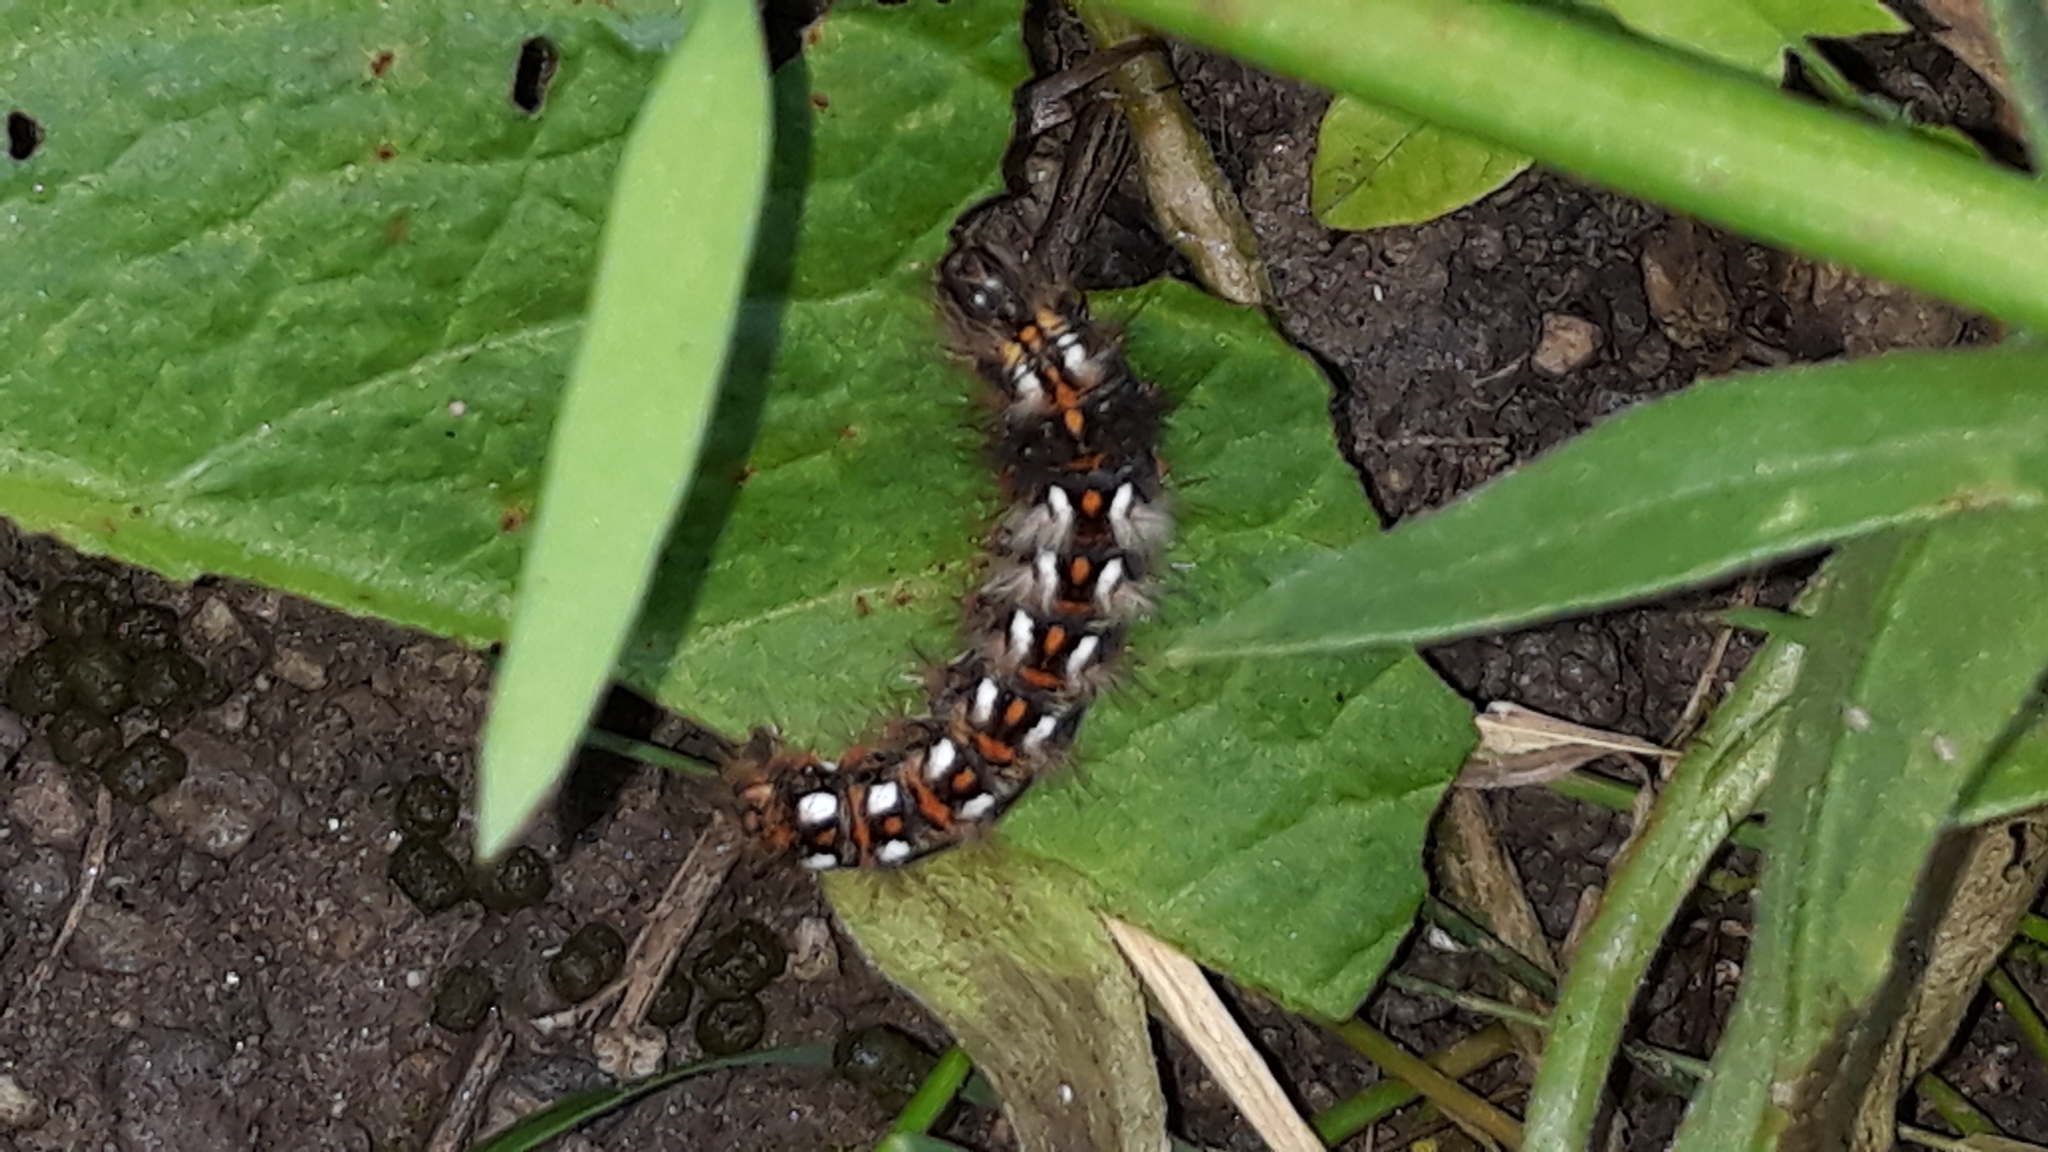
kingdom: Animalia
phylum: Arthropoda
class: Insecta
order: Lepidoptera
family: Noctuidae
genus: Acronicta
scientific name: Acronicta rumicis
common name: Knot grass
